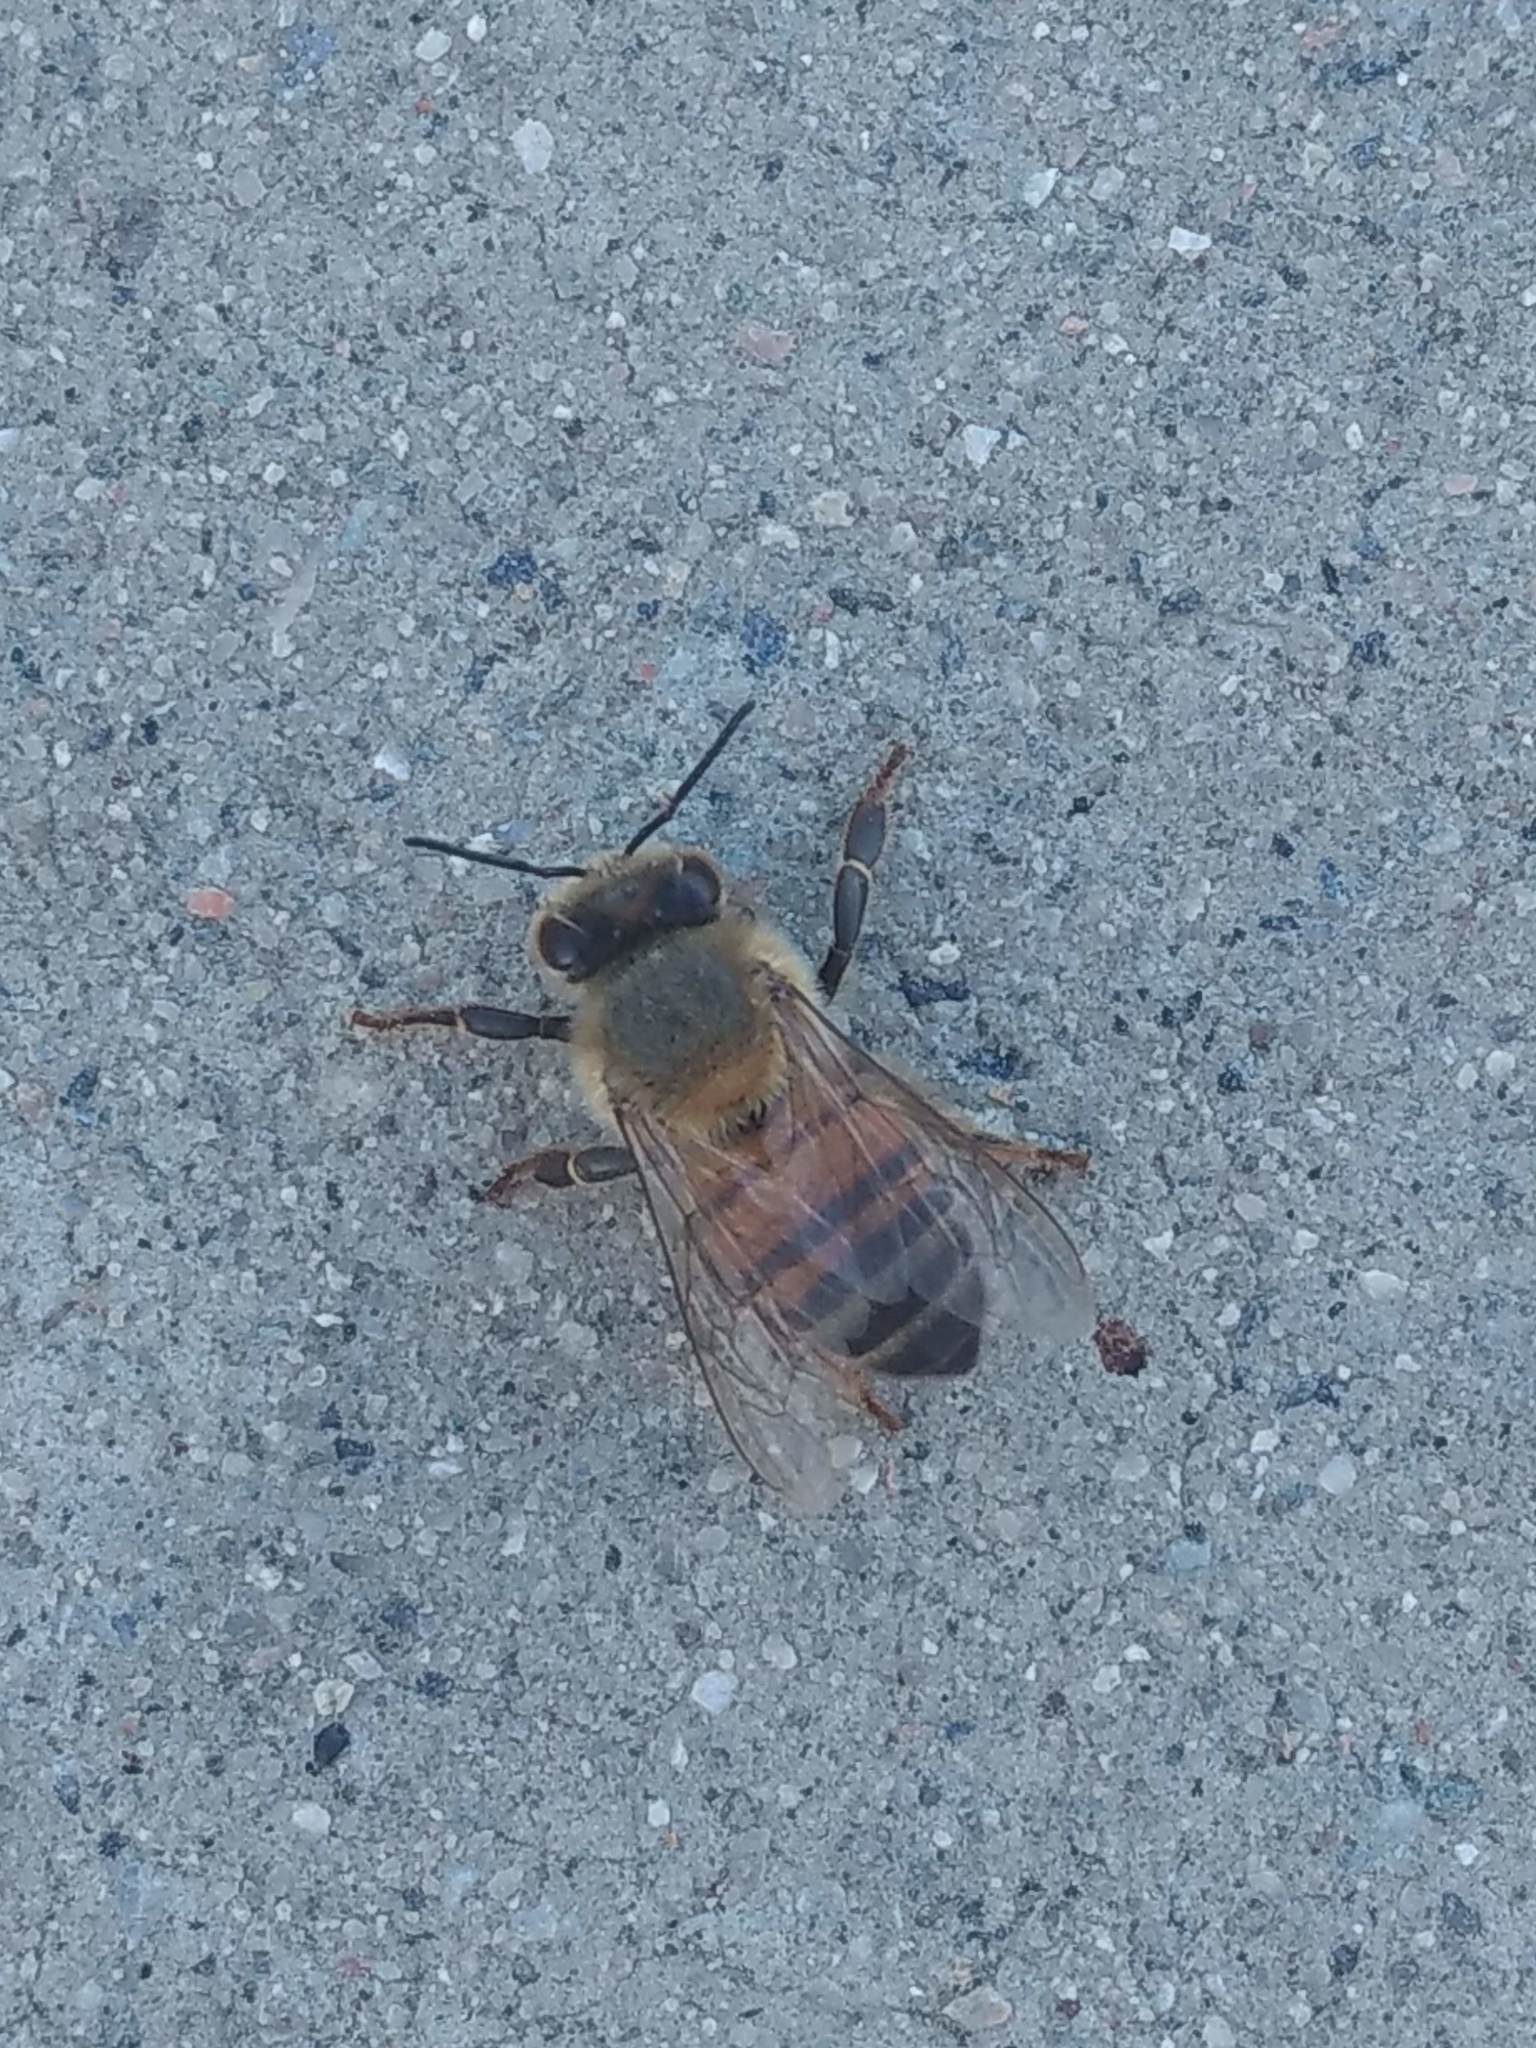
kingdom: Animalia
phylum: Arthropoda
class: Insecta
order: Hymenoptera
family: Apidae
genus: Apis
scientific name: Apis mellifera
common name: Honey bee
